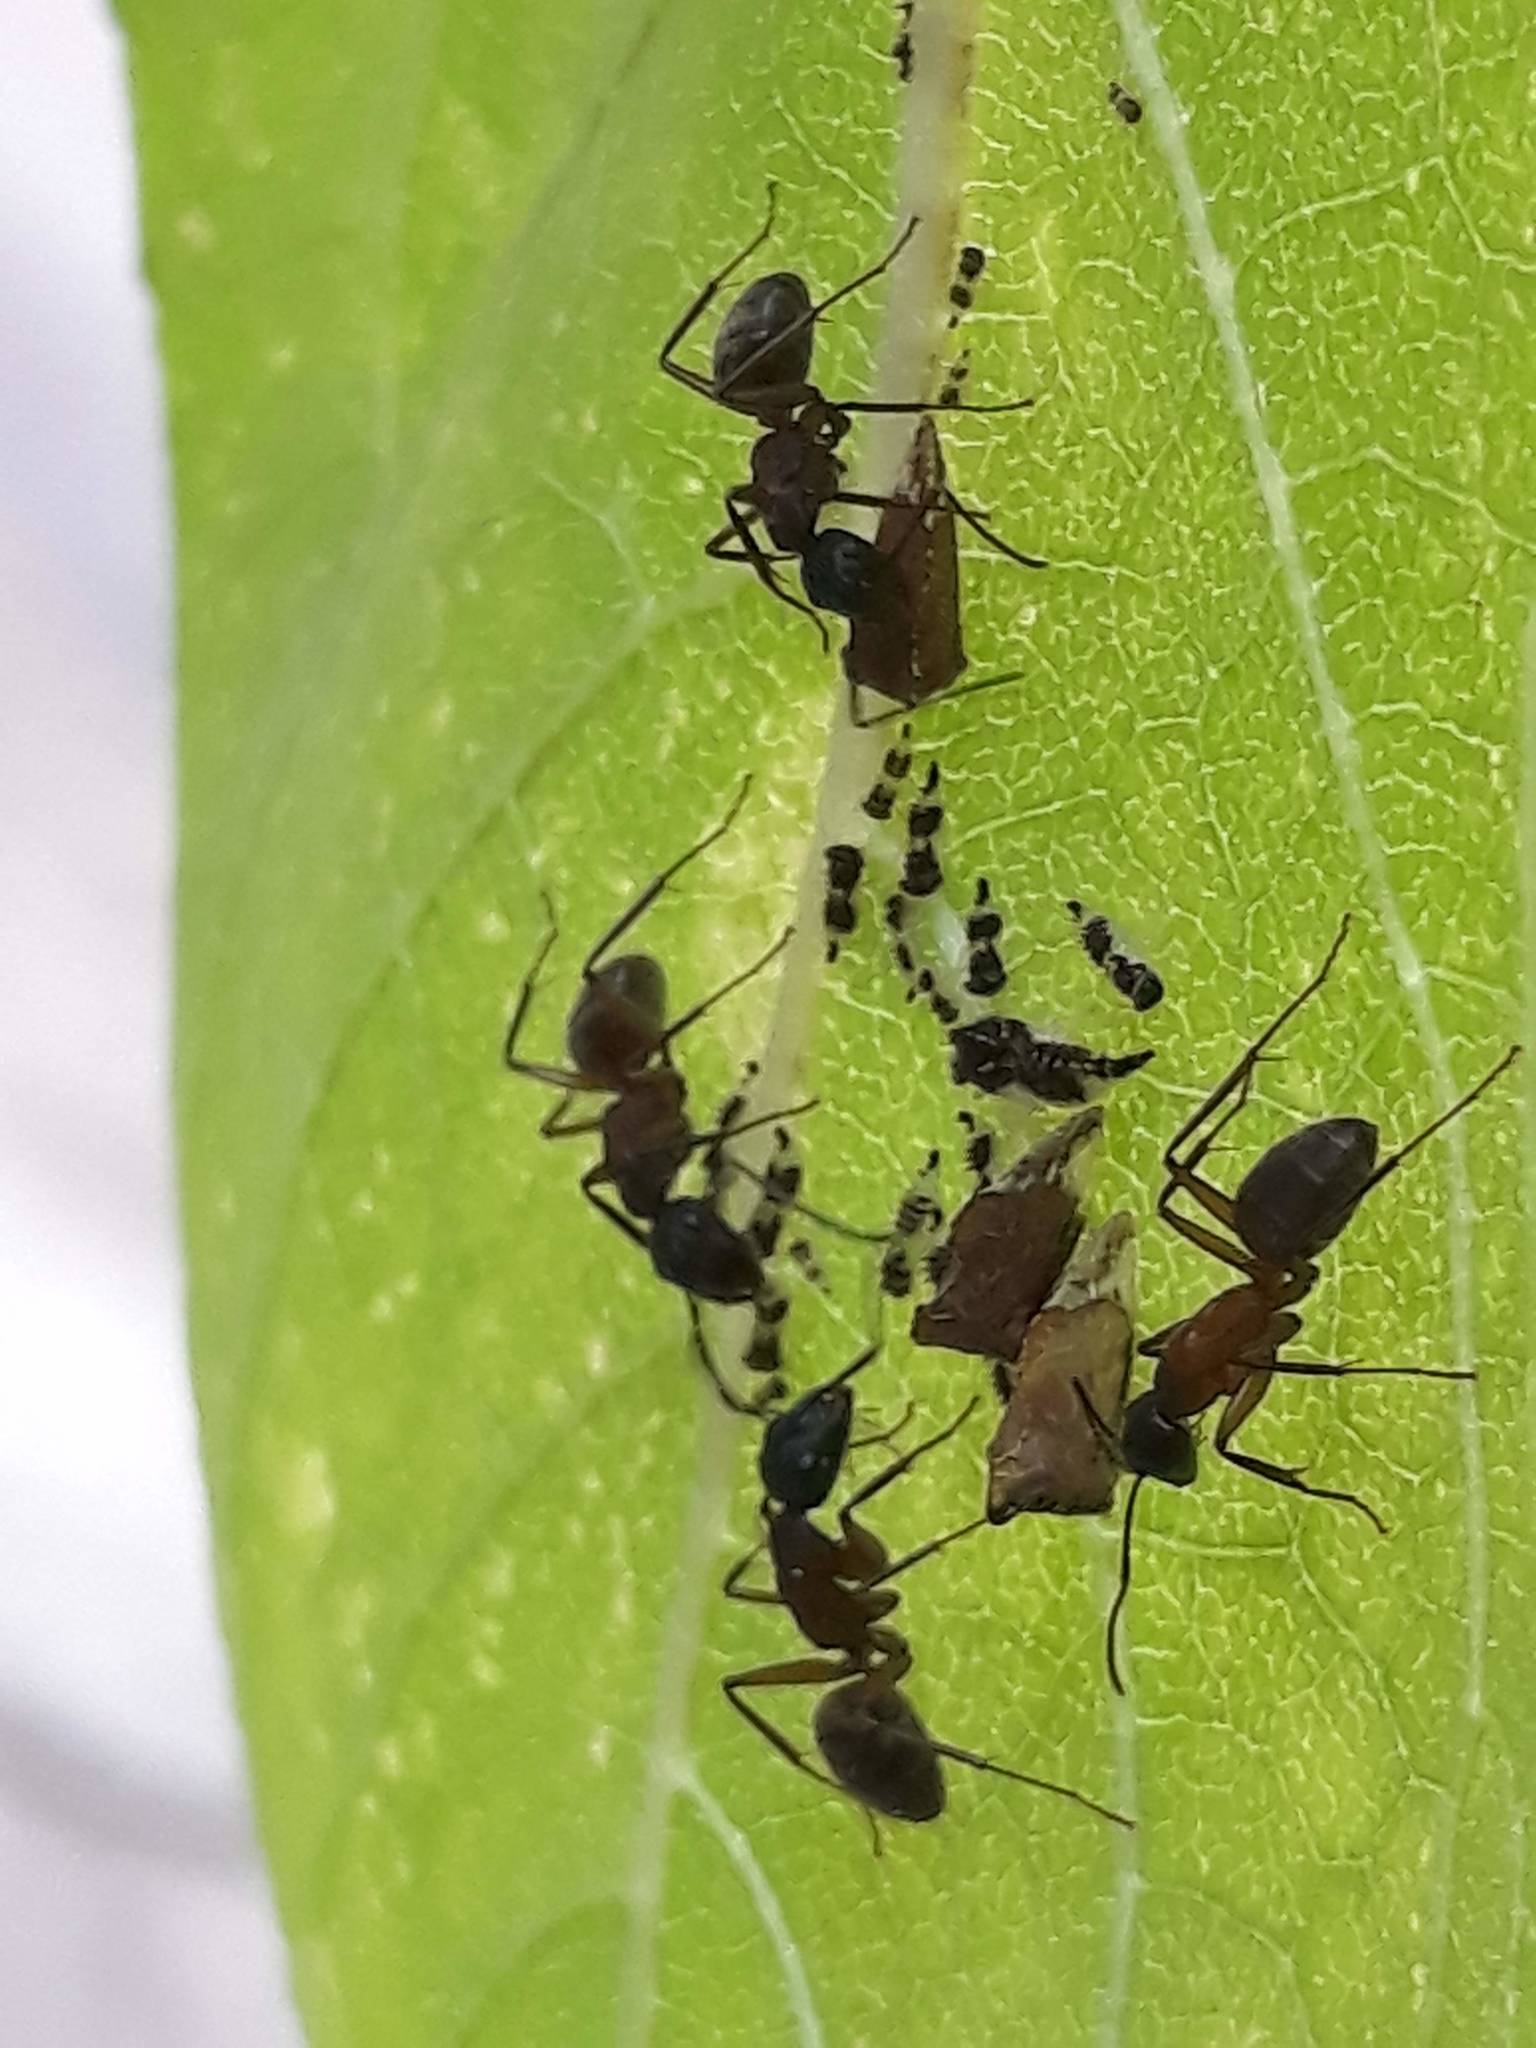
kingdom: Animalia
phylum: Arthropoda
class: Insecta
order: Hymenoptera
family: Formicidae
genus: Camponotus
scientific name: Camponotus chromaiodes
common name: Red carpenter ant
